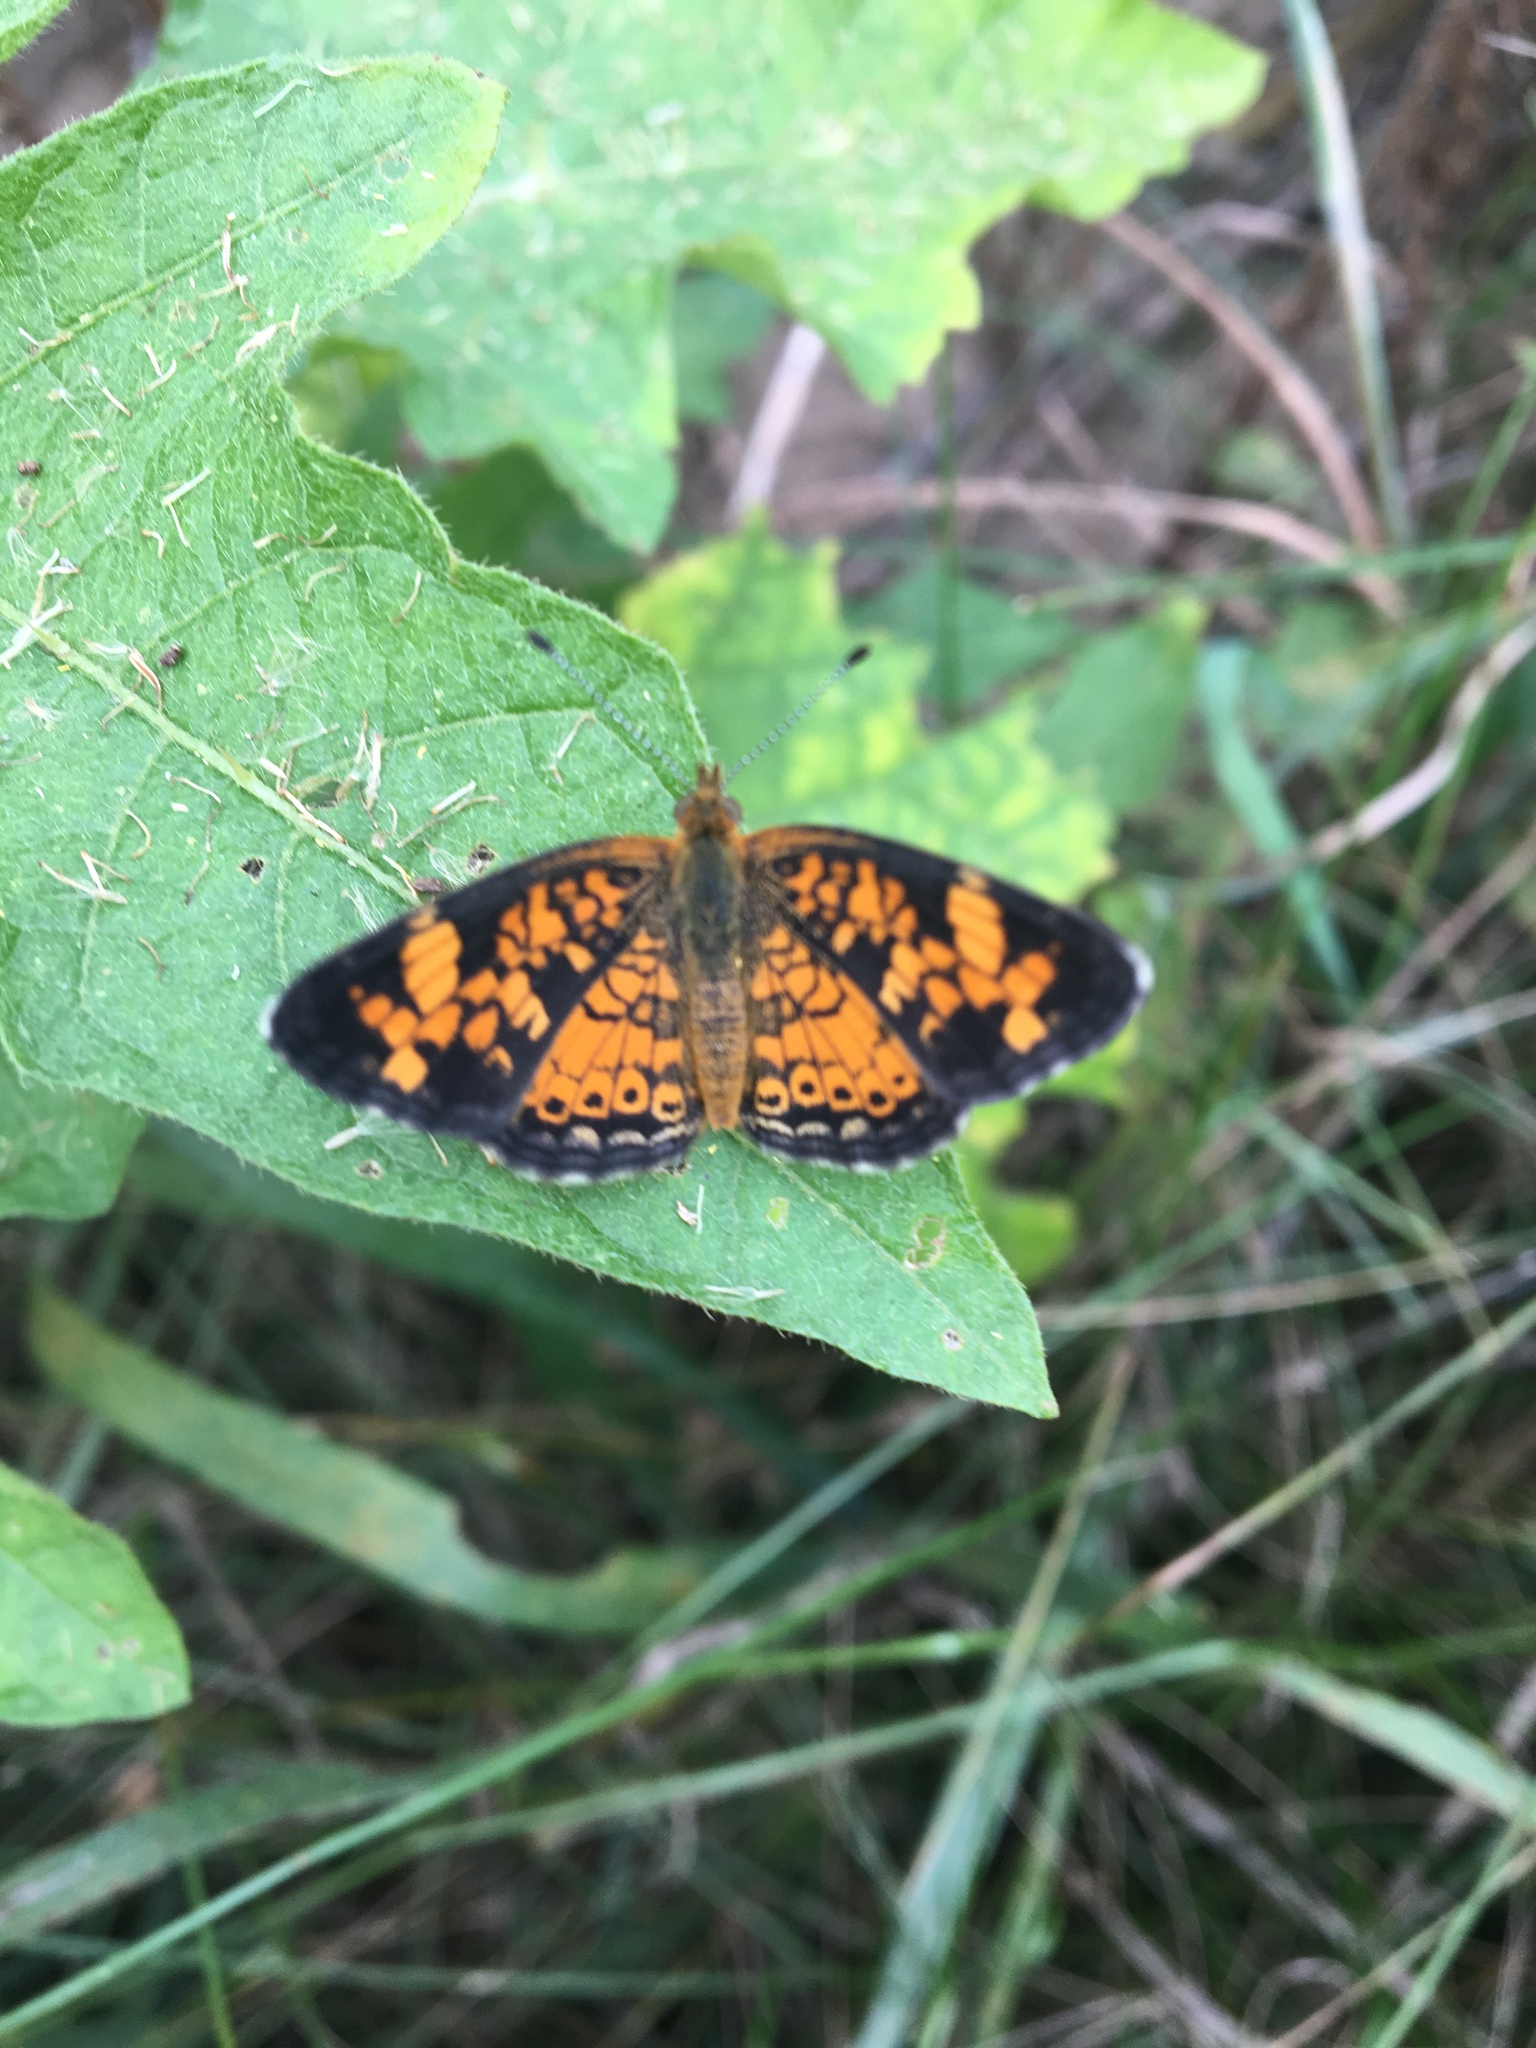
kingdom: Animalia
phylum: Arthropoda
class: Insecta
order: Lepidoptera
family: Nymphalidae
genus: Phyciodes
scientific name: Phyciodes tharos
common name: Pearl crescent
